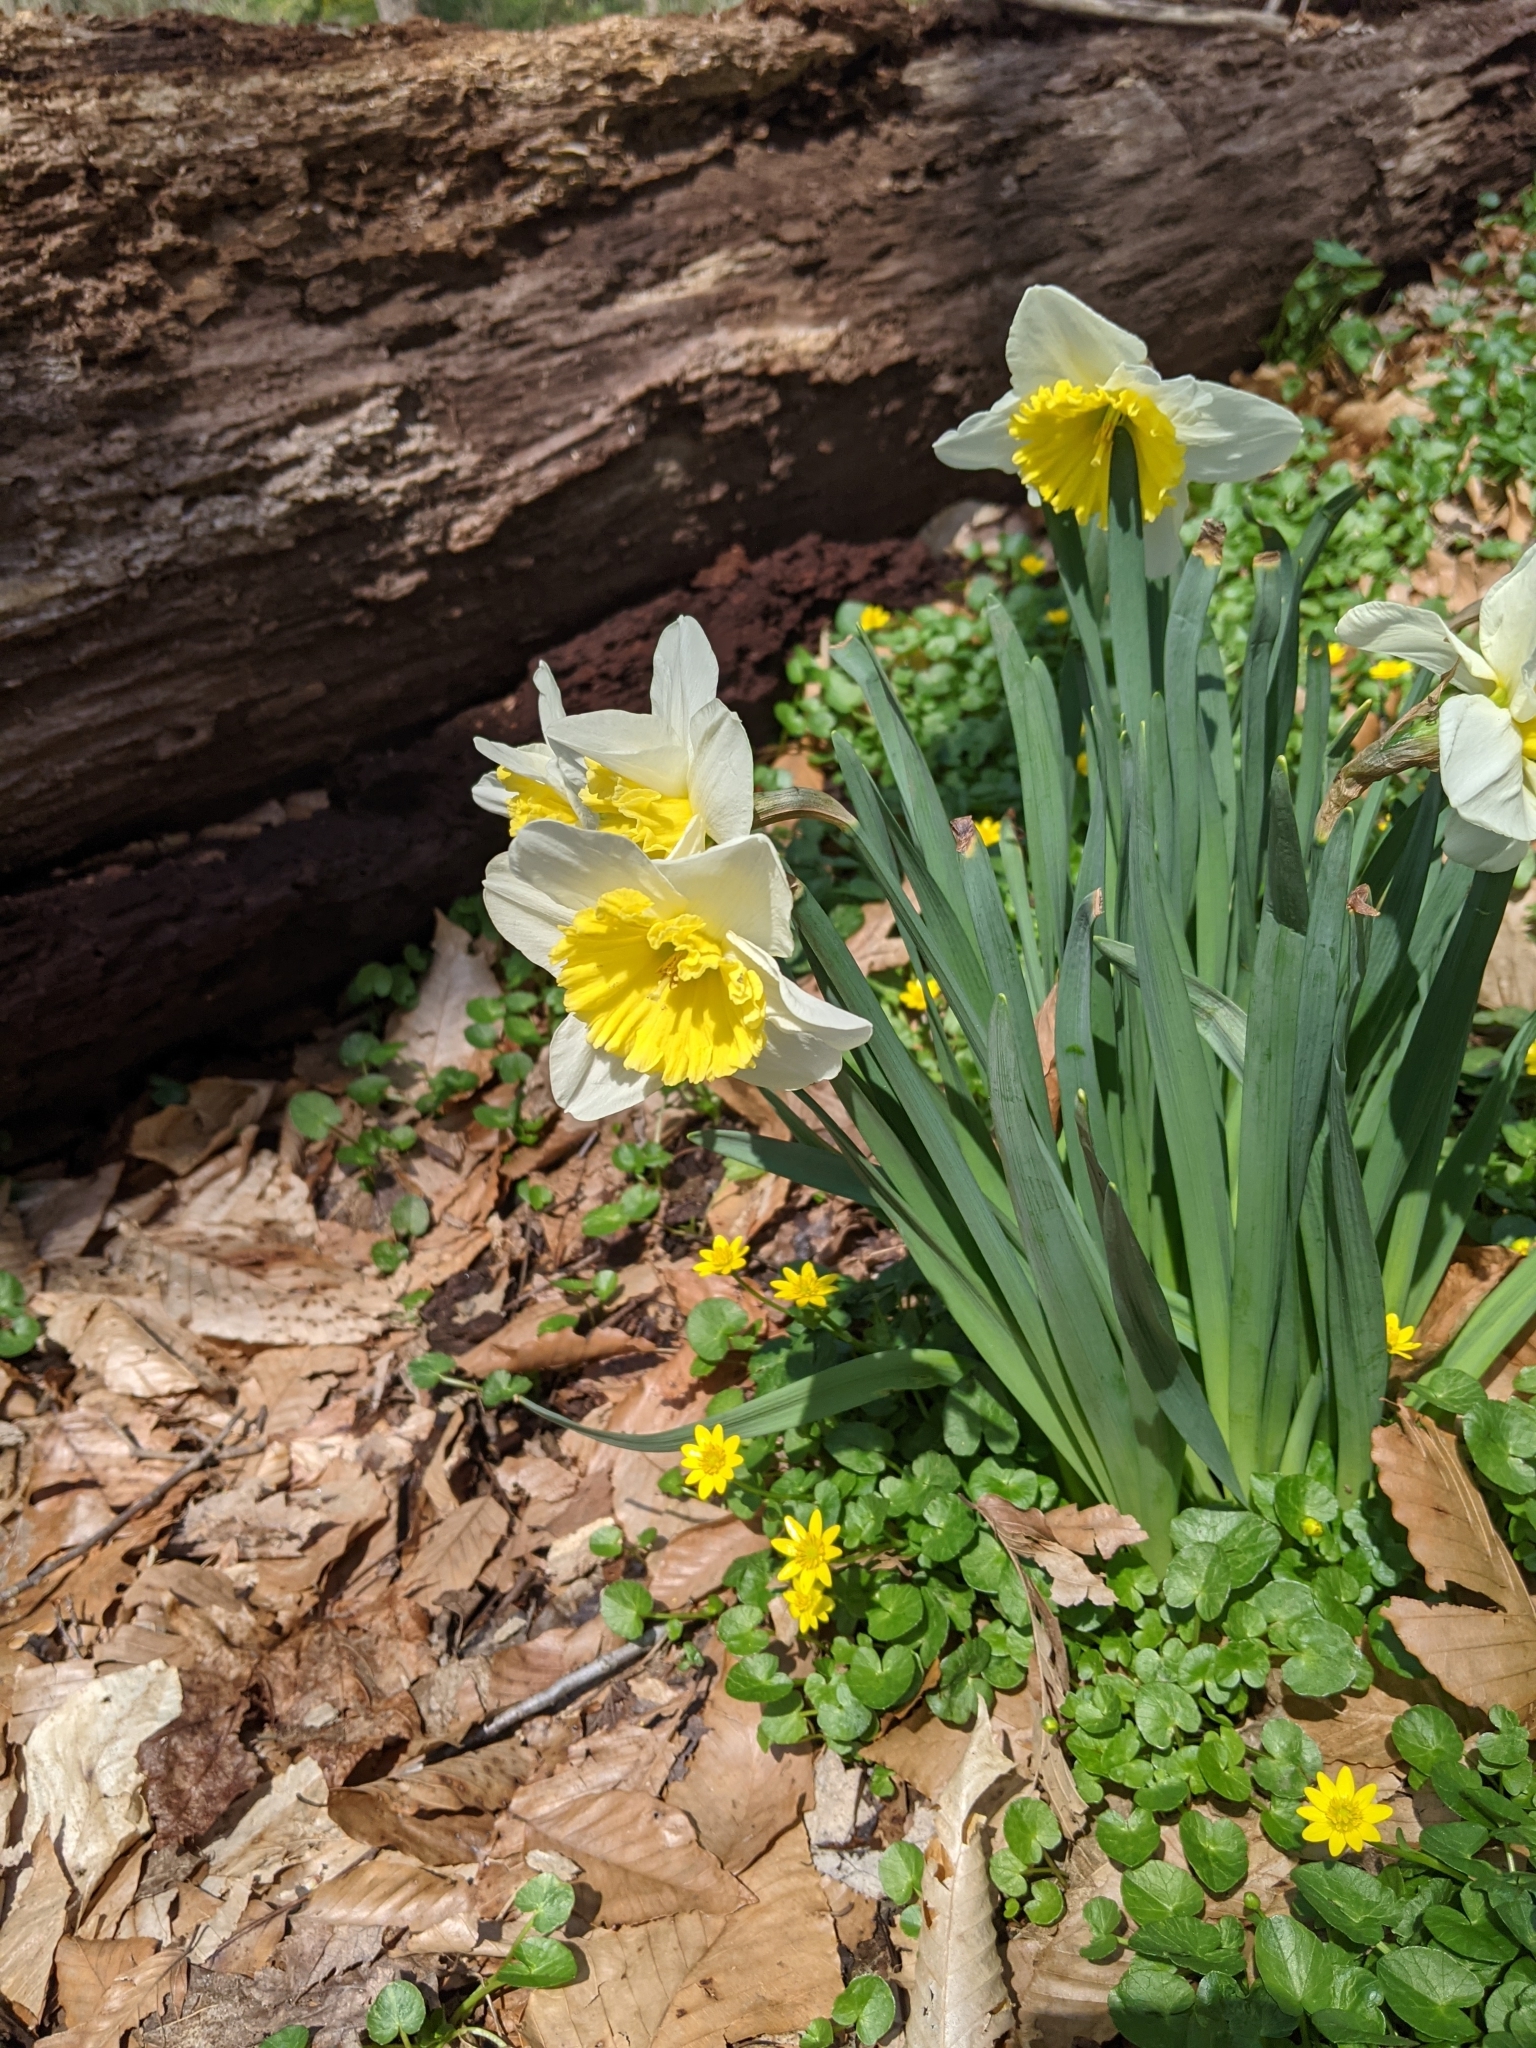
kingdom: Plantae
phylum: Tracheophyta
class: Liliopsida
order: Asparagales
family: Amaryllidaceae
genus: Narcissus
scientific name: Narcissus
